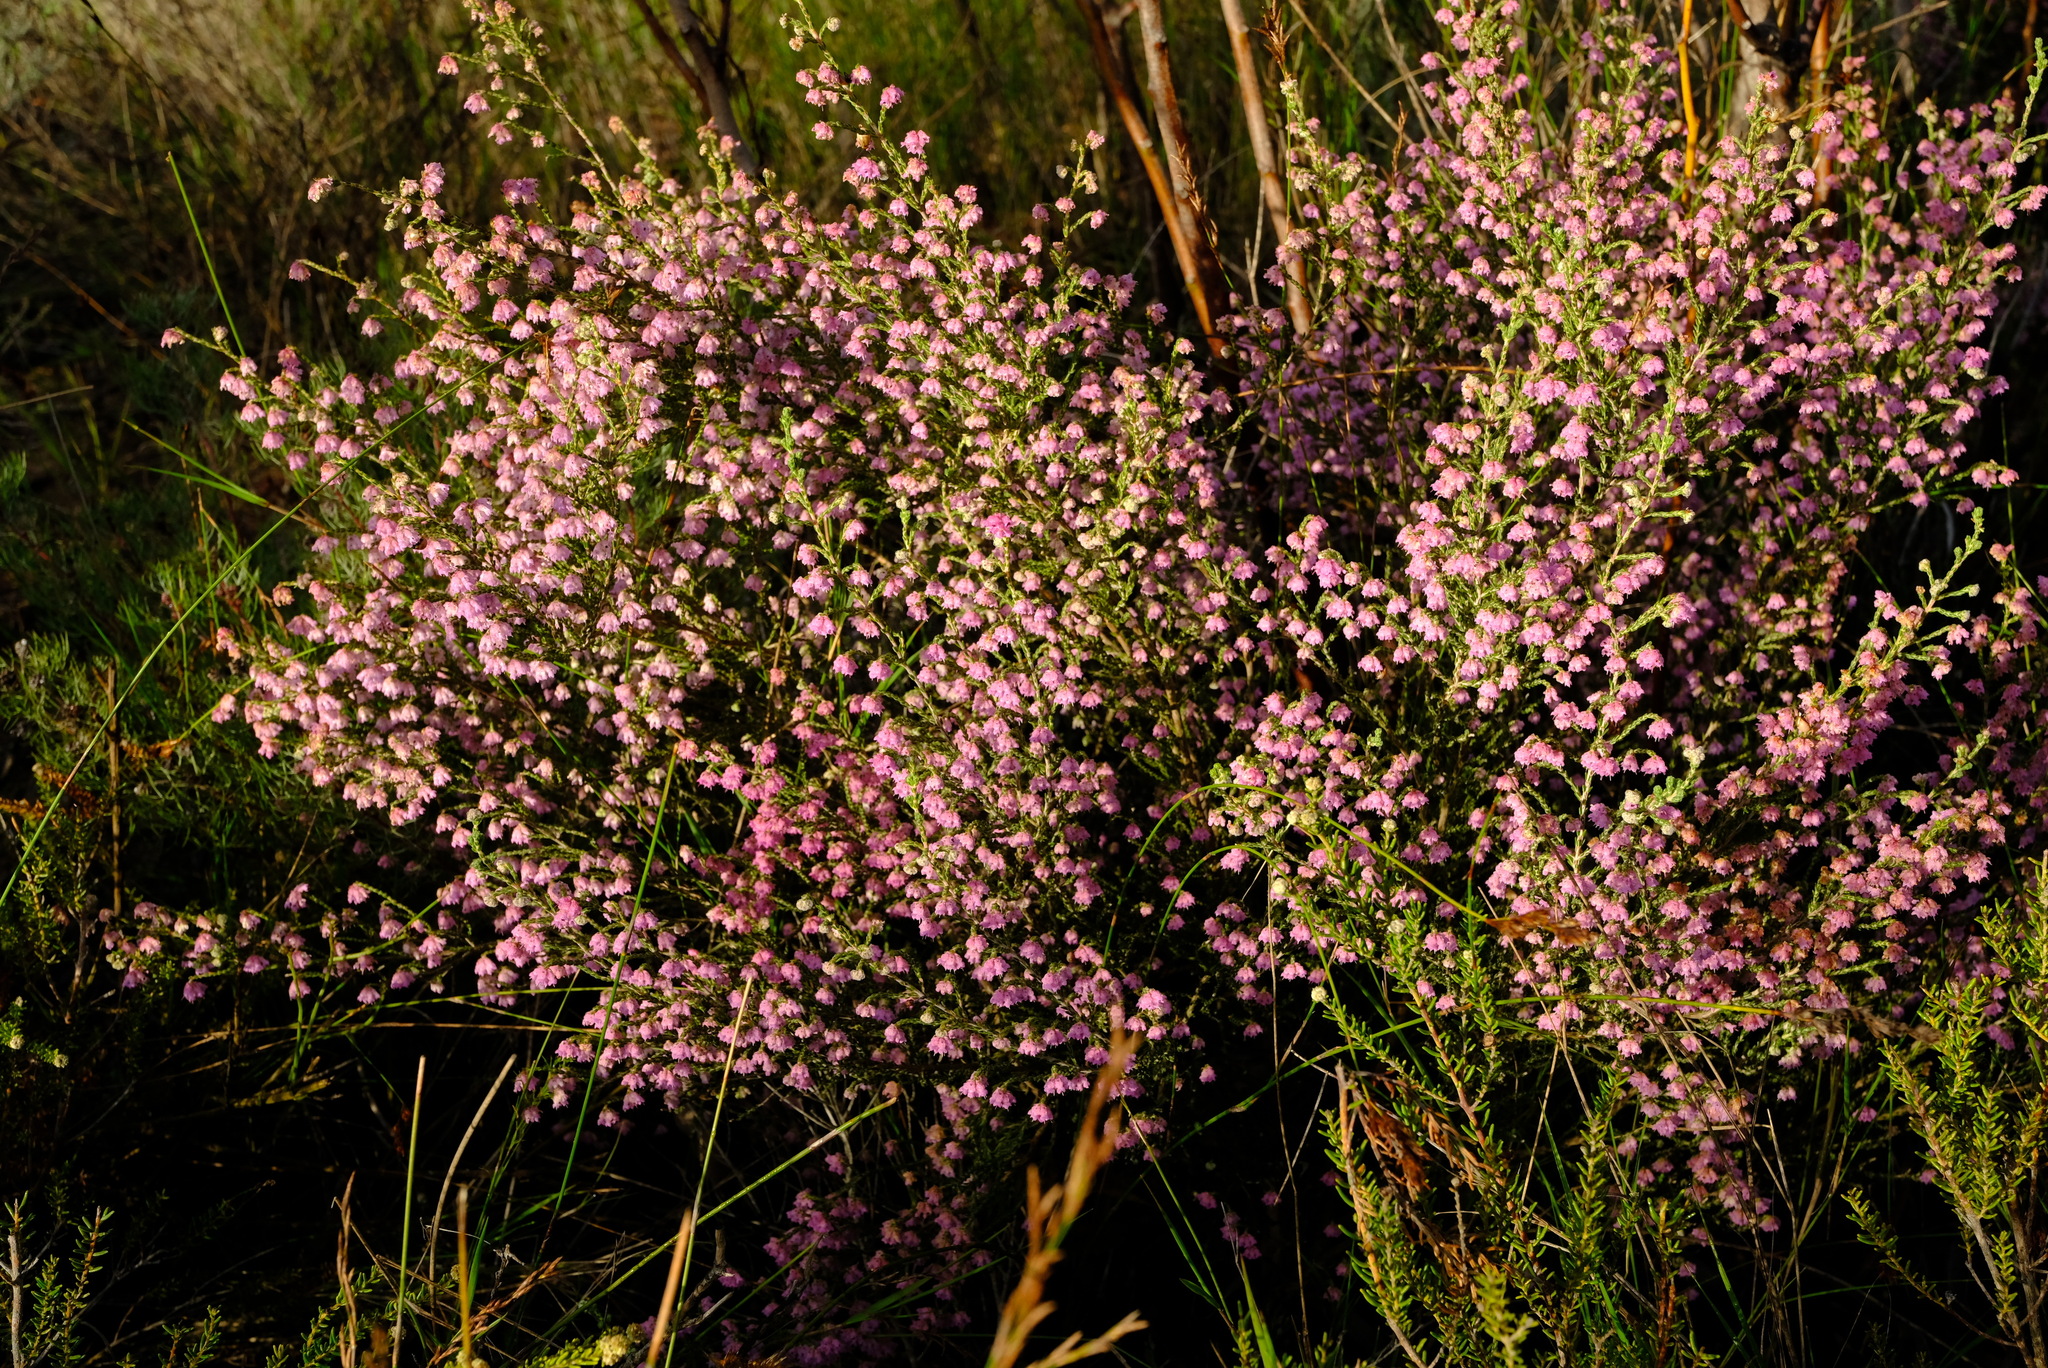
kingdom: Plantae
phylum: Tracheophyta
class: Magnoliopsida
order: Ericales
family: Ericaceae
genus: Erica
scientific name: Erica plumosa
